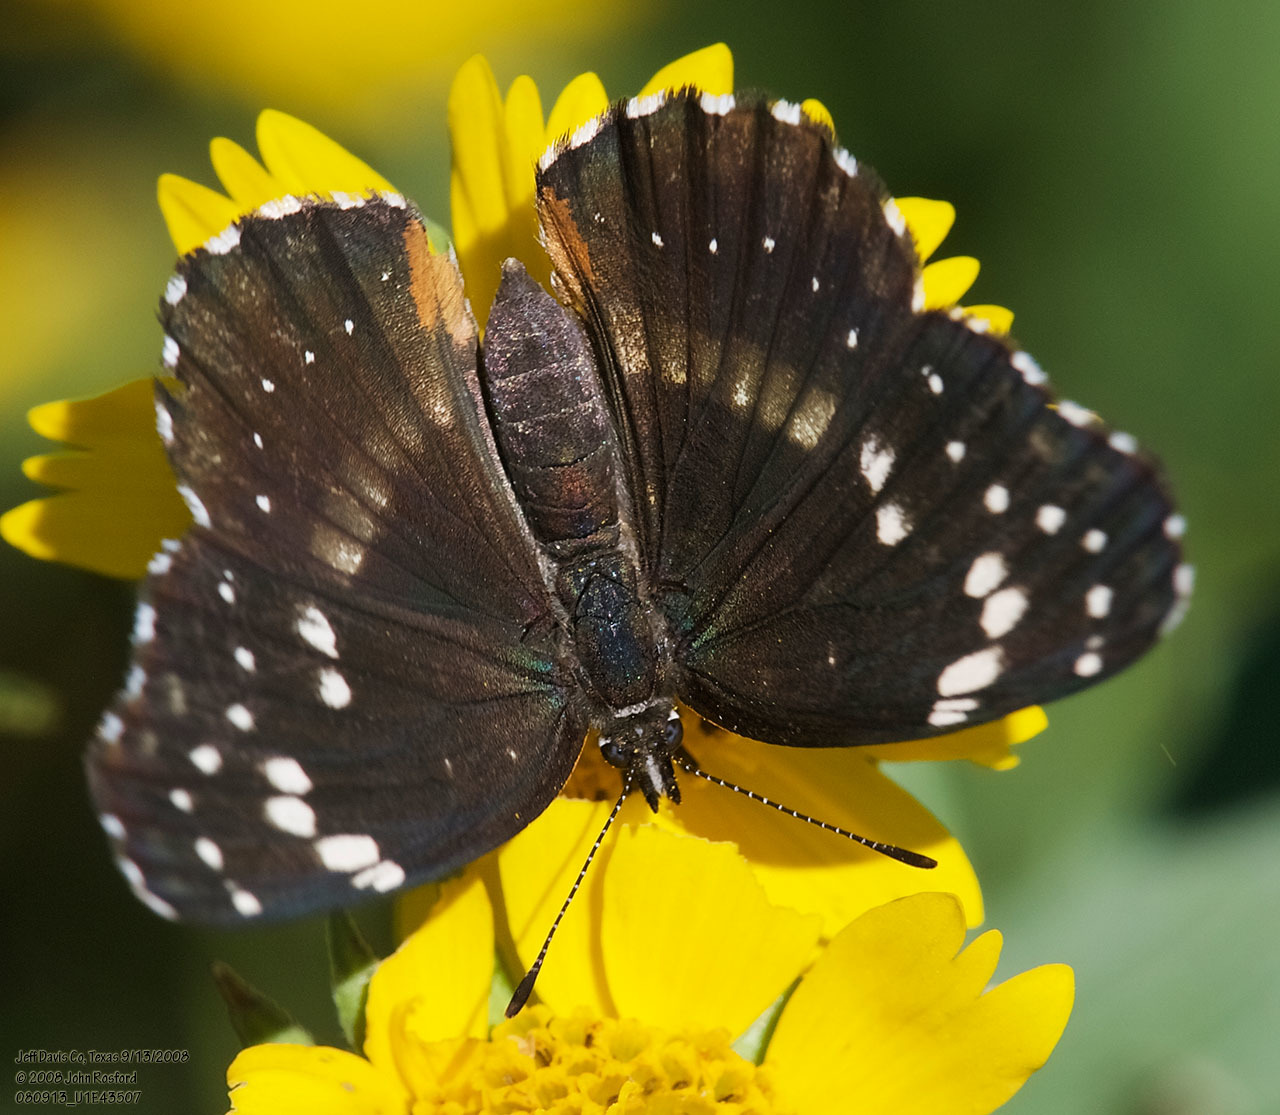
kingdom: Animalia
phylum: Arthropoda
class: Insecta
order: Lepidoptera
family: Nymphalidae
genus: Chlosyne
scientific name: Chlosyne lacinia
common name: Bordered patch
